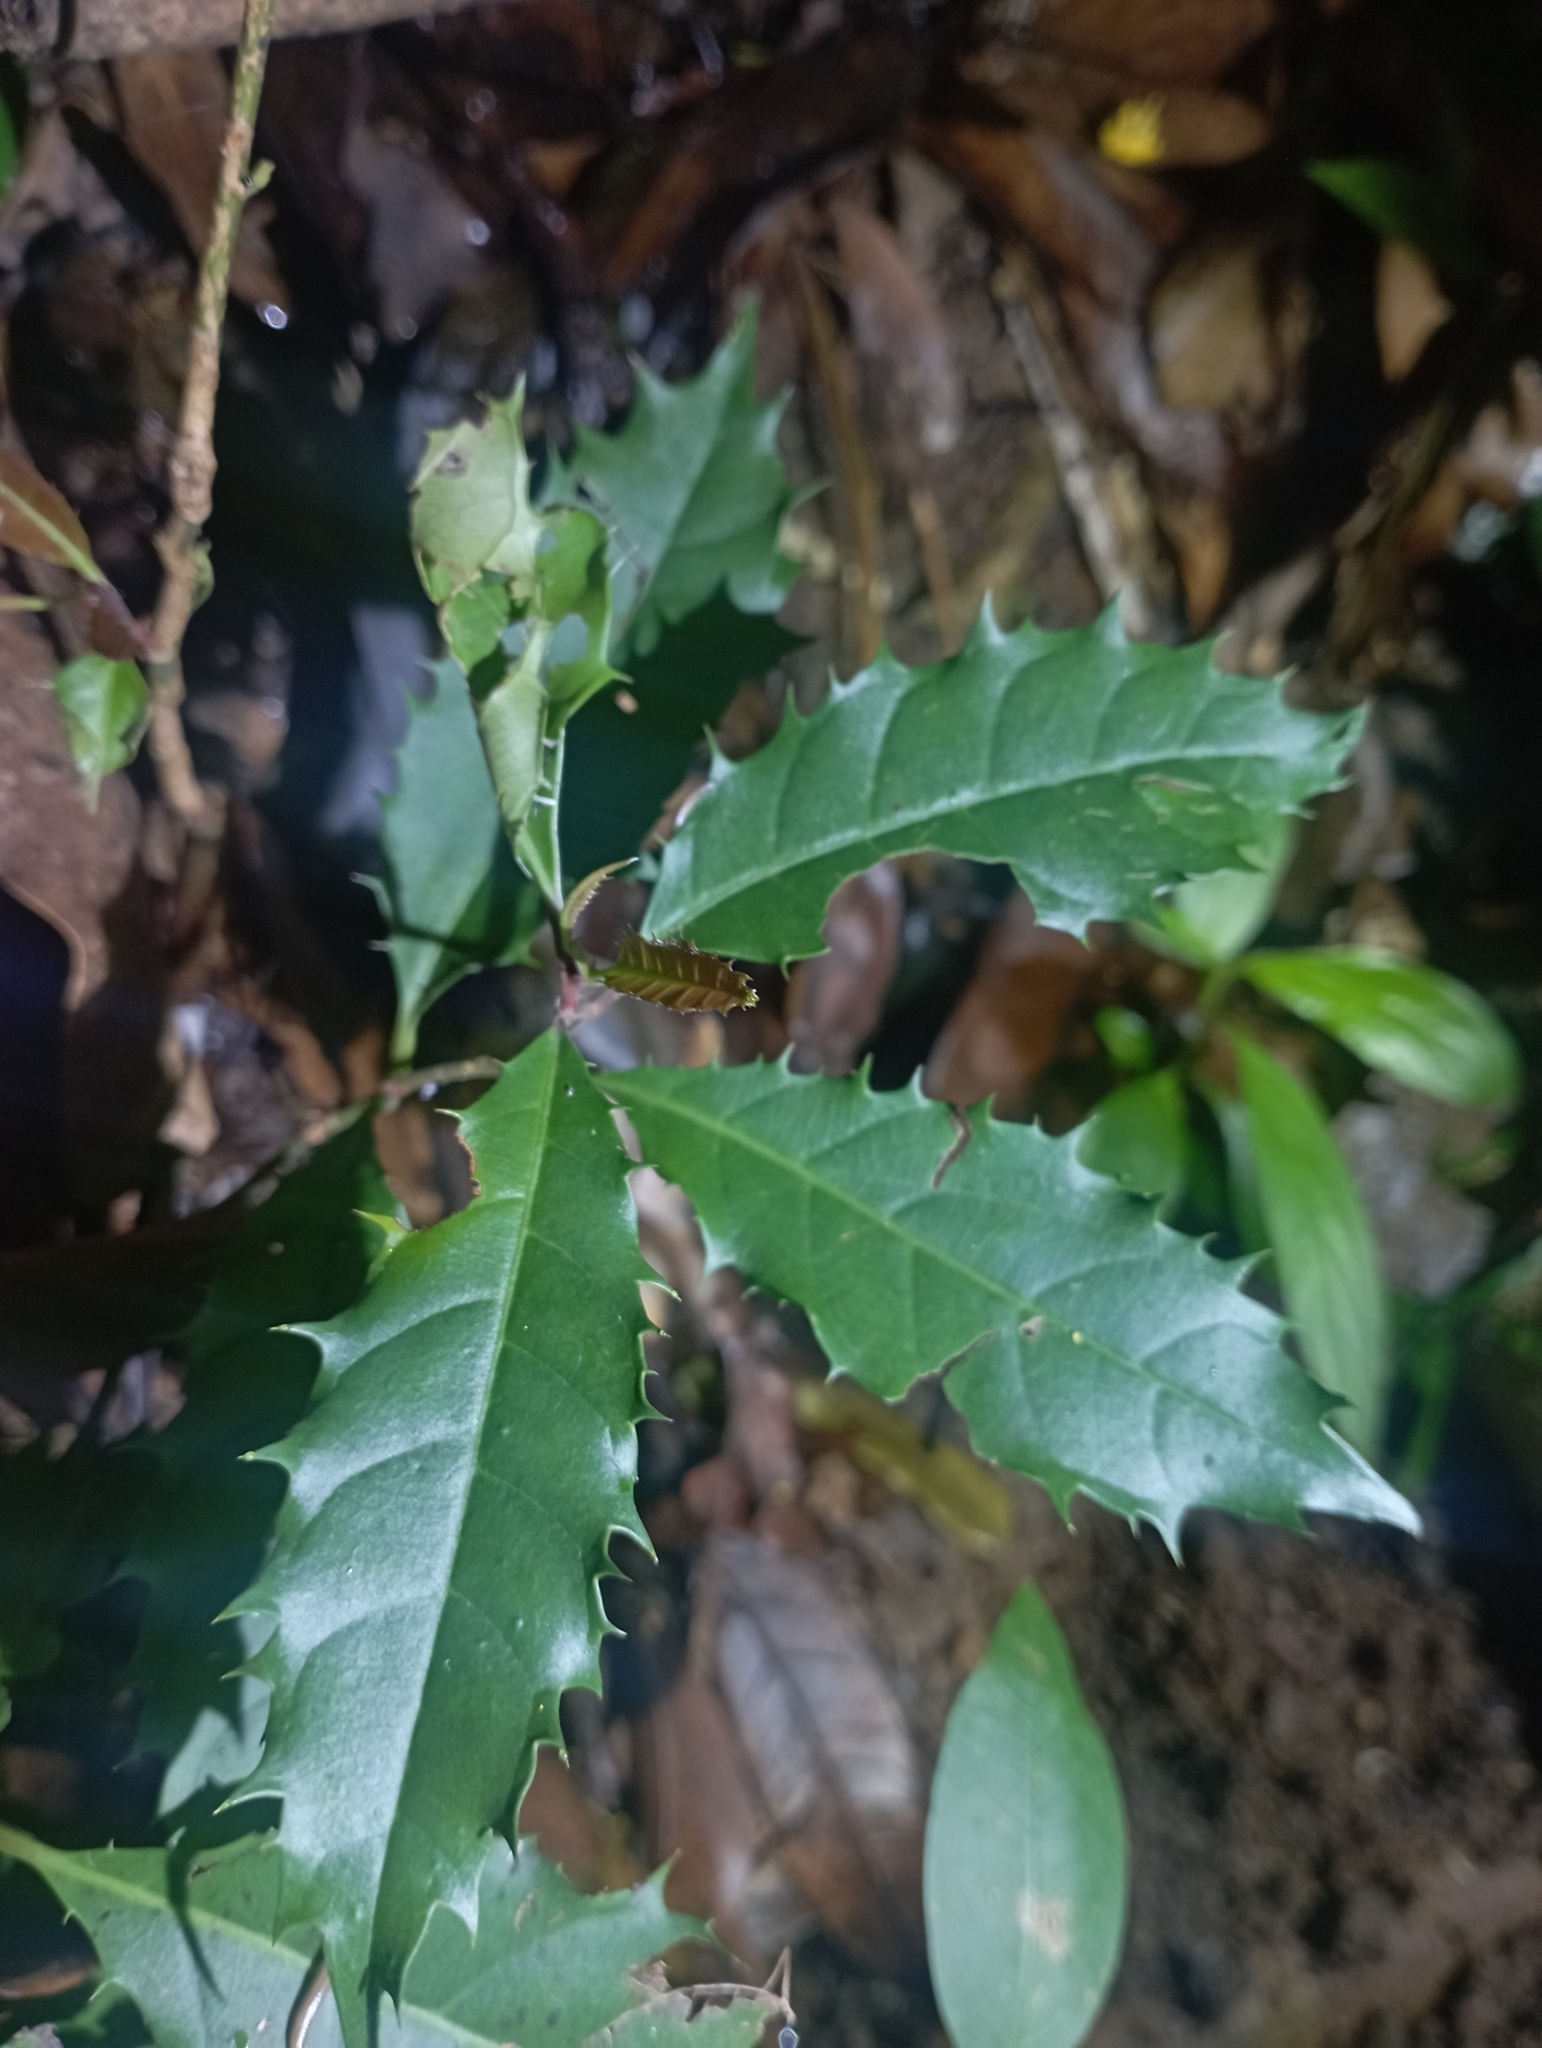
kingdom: Plantae
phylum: Tracheophyta
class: Magnoliopsida
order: Saxifragales
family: Iteaceae
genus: Itea
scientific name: Itea oldhamii
